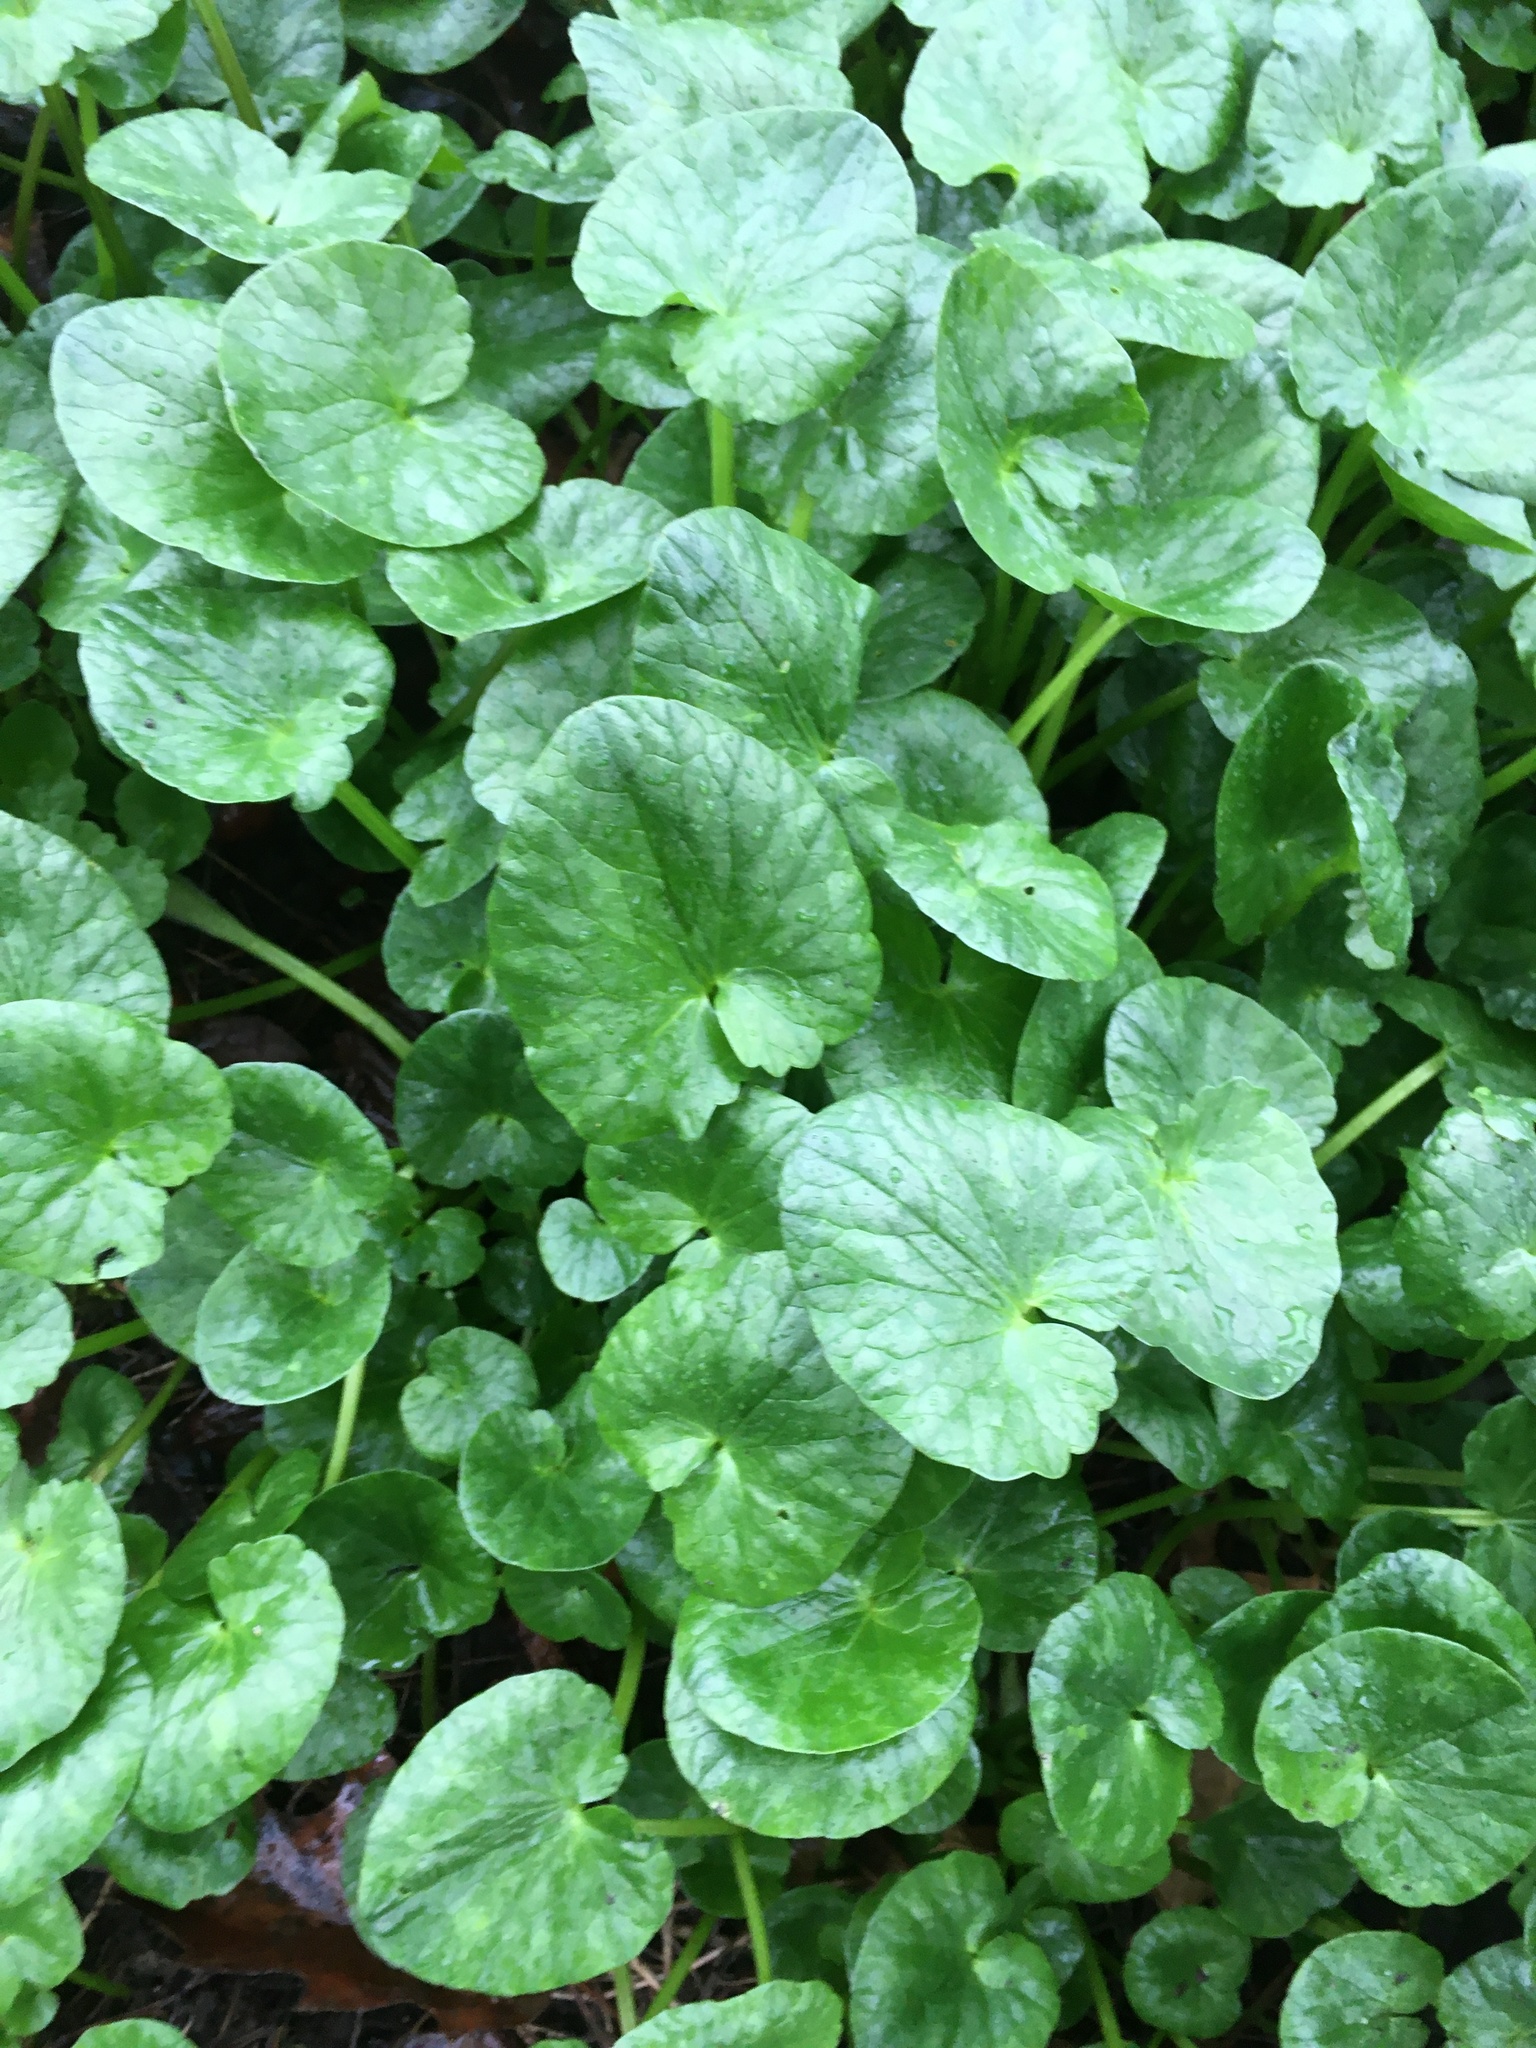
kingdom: Plantae
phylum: Tracheophyta
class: Magnoliopsida
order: Ranunculales
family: Ranunculaceae
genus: Ficaria
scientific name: Ficaria verna
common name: Lesser celandine
